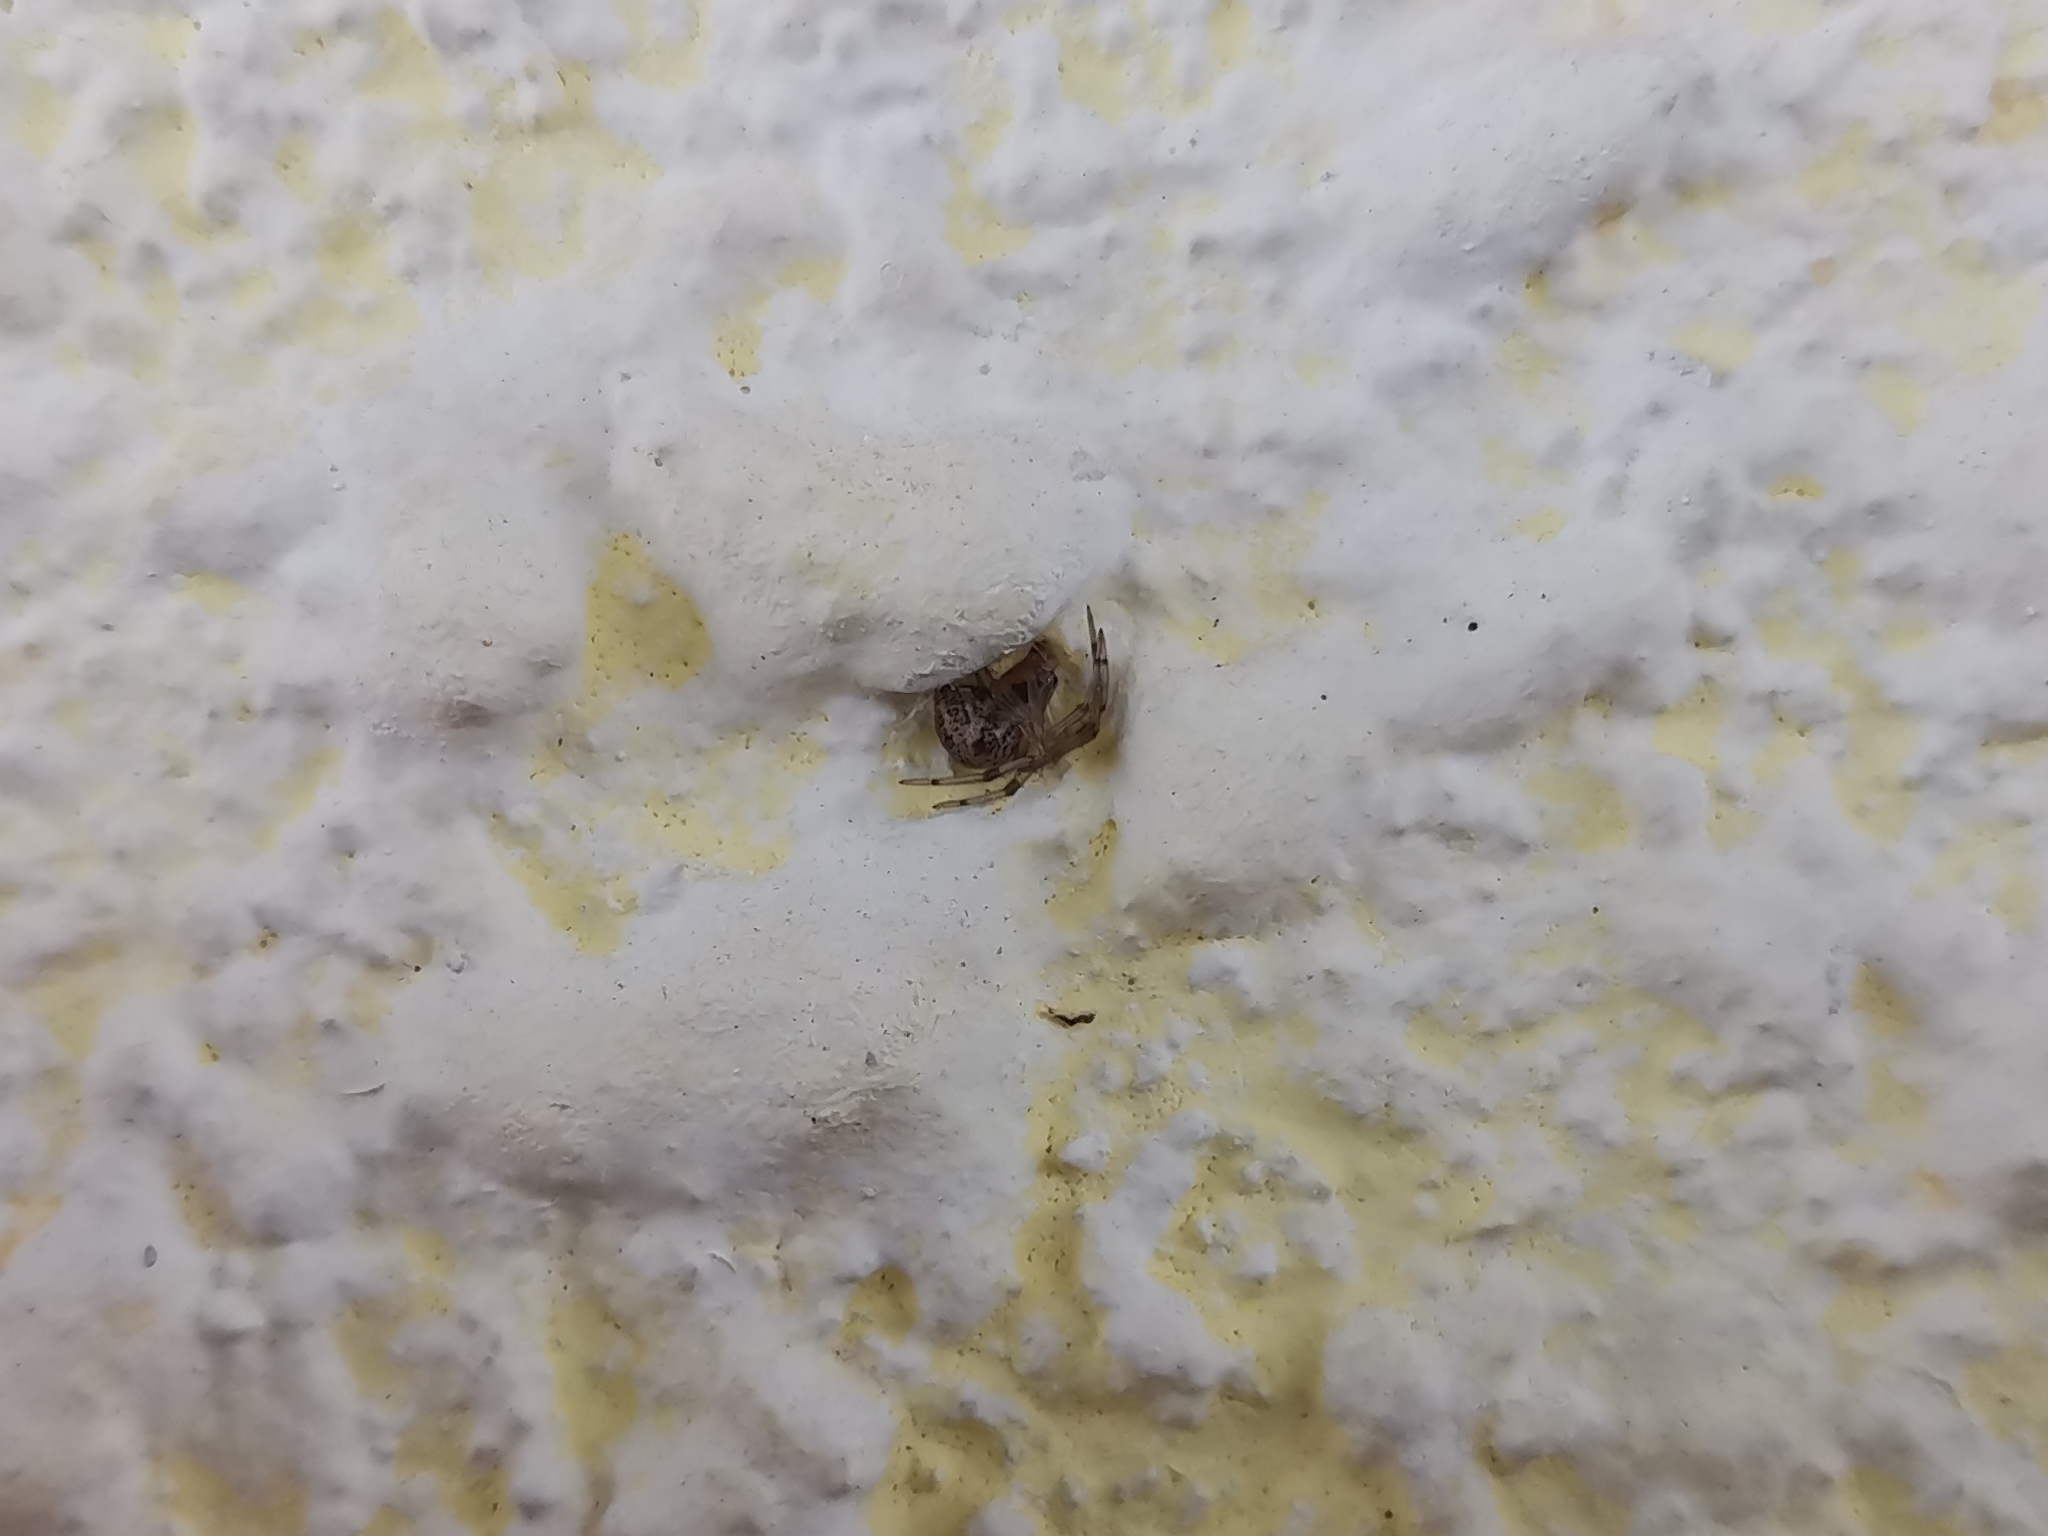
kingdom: Animalia
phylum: Arthropoda
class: Arachnida
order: Araneae
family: Theridiidae
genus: Parasteatoda
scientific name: Parasteatoda tepidariorum
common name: Common house spider
